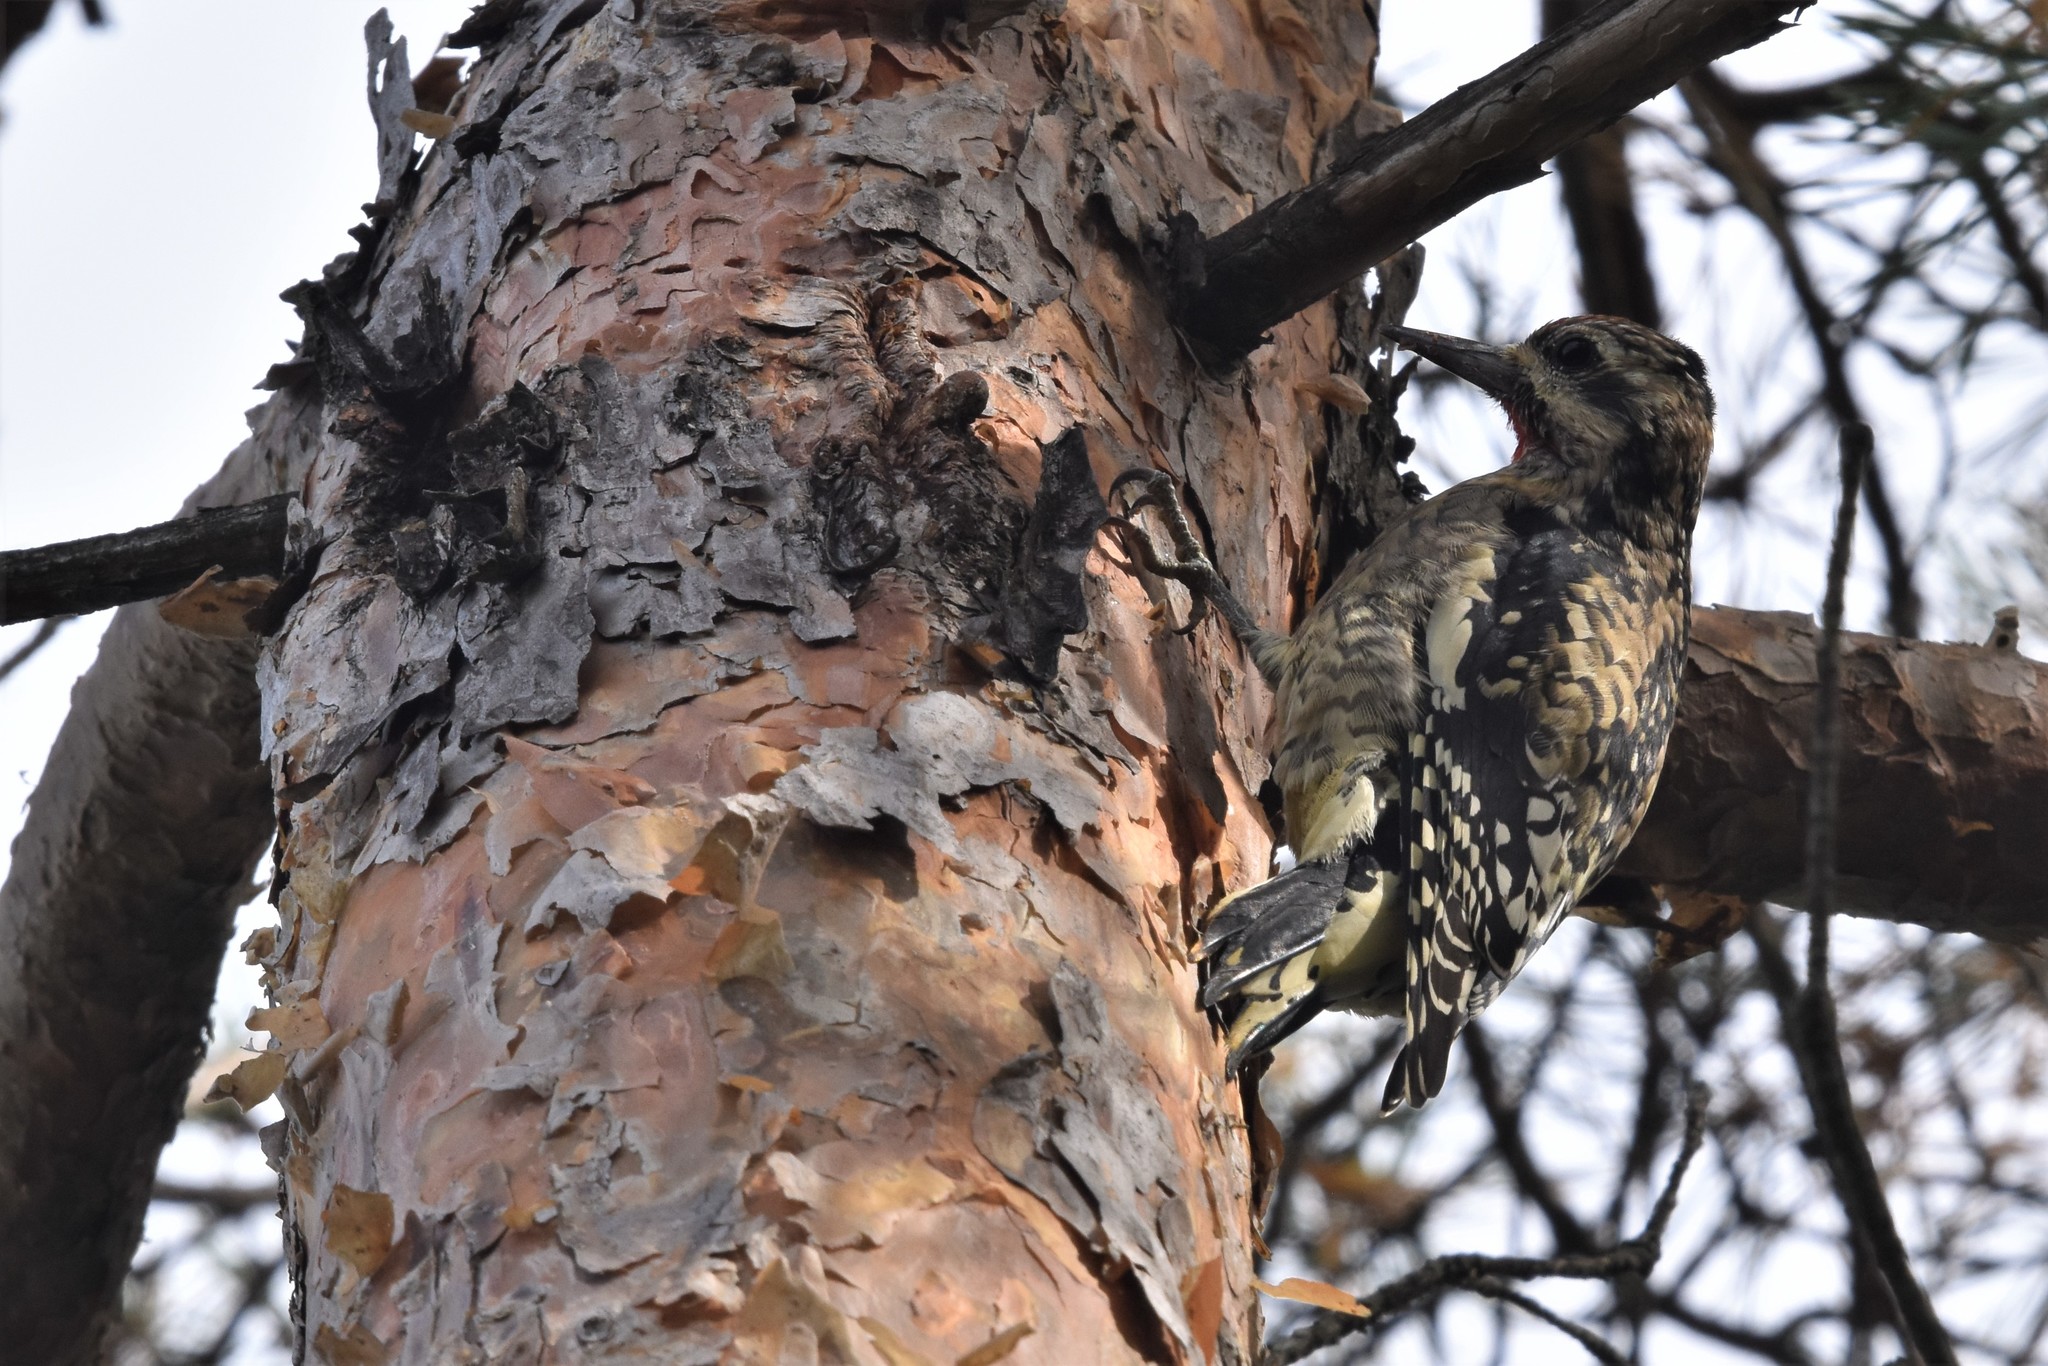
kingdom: Animalia
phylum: Chordata
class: Aves
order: Piciformes
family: Picidae
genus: Sphyrapicus
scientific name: Sphyrapicus varius
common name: Yellow-bellied sapsucker
